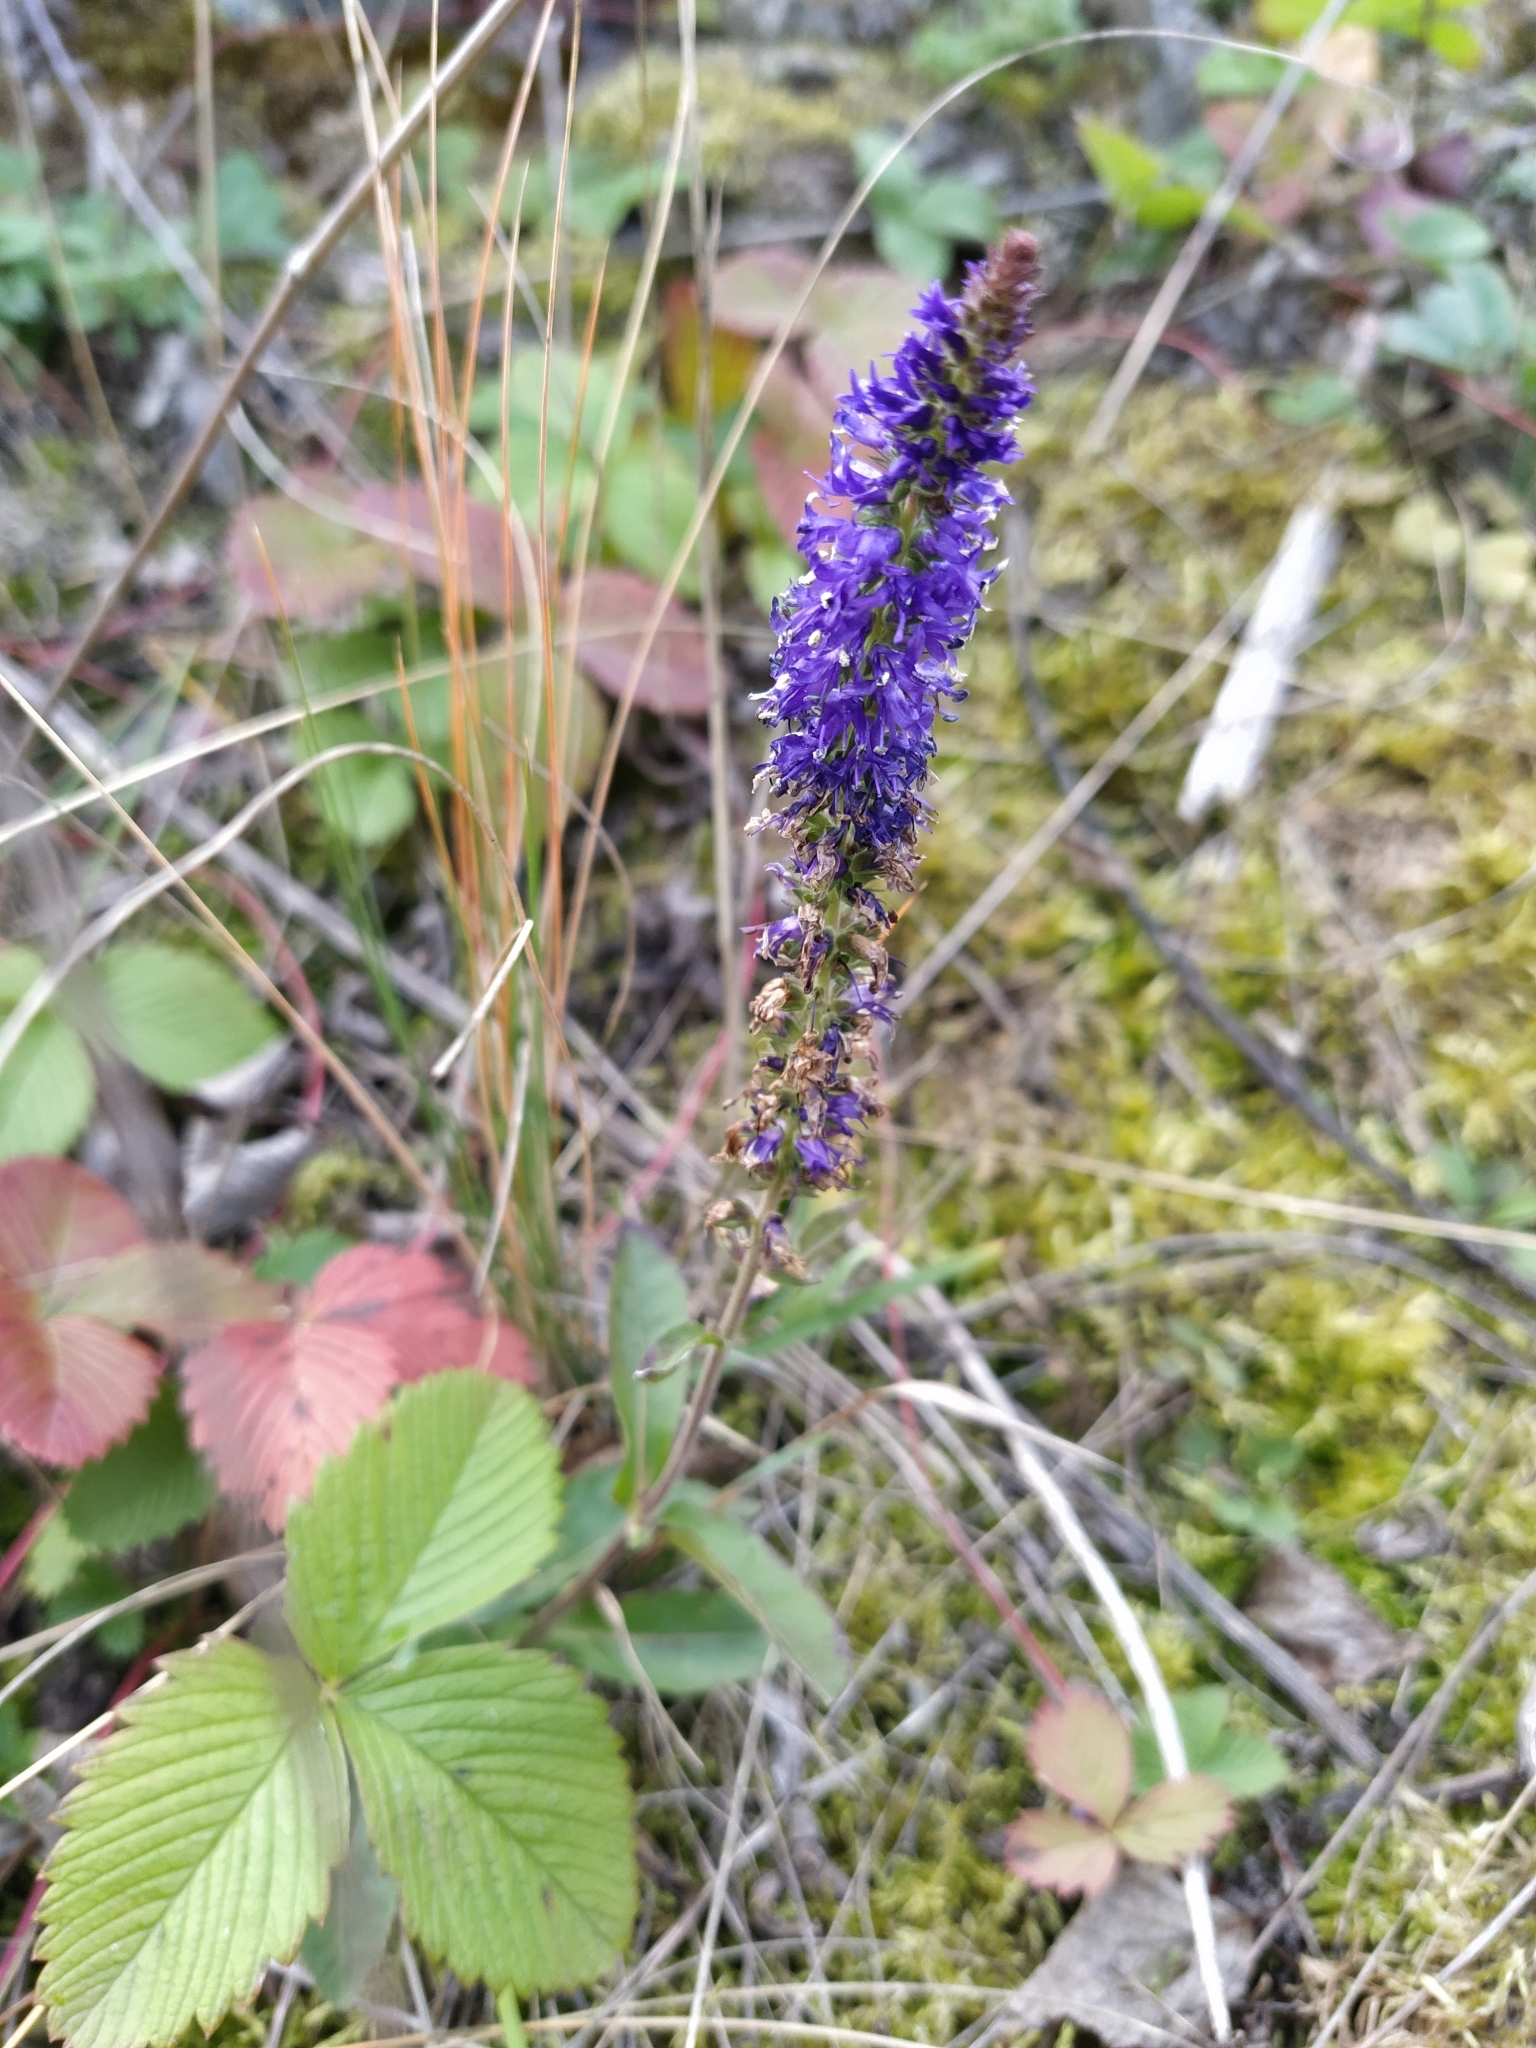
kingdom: Plantae
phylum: Tracheophyta
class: Magnoliopsida
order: Lamiales
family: Plantaginaceae
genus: Veronica
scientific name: Veronica spicata
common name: Spiked speedwell
